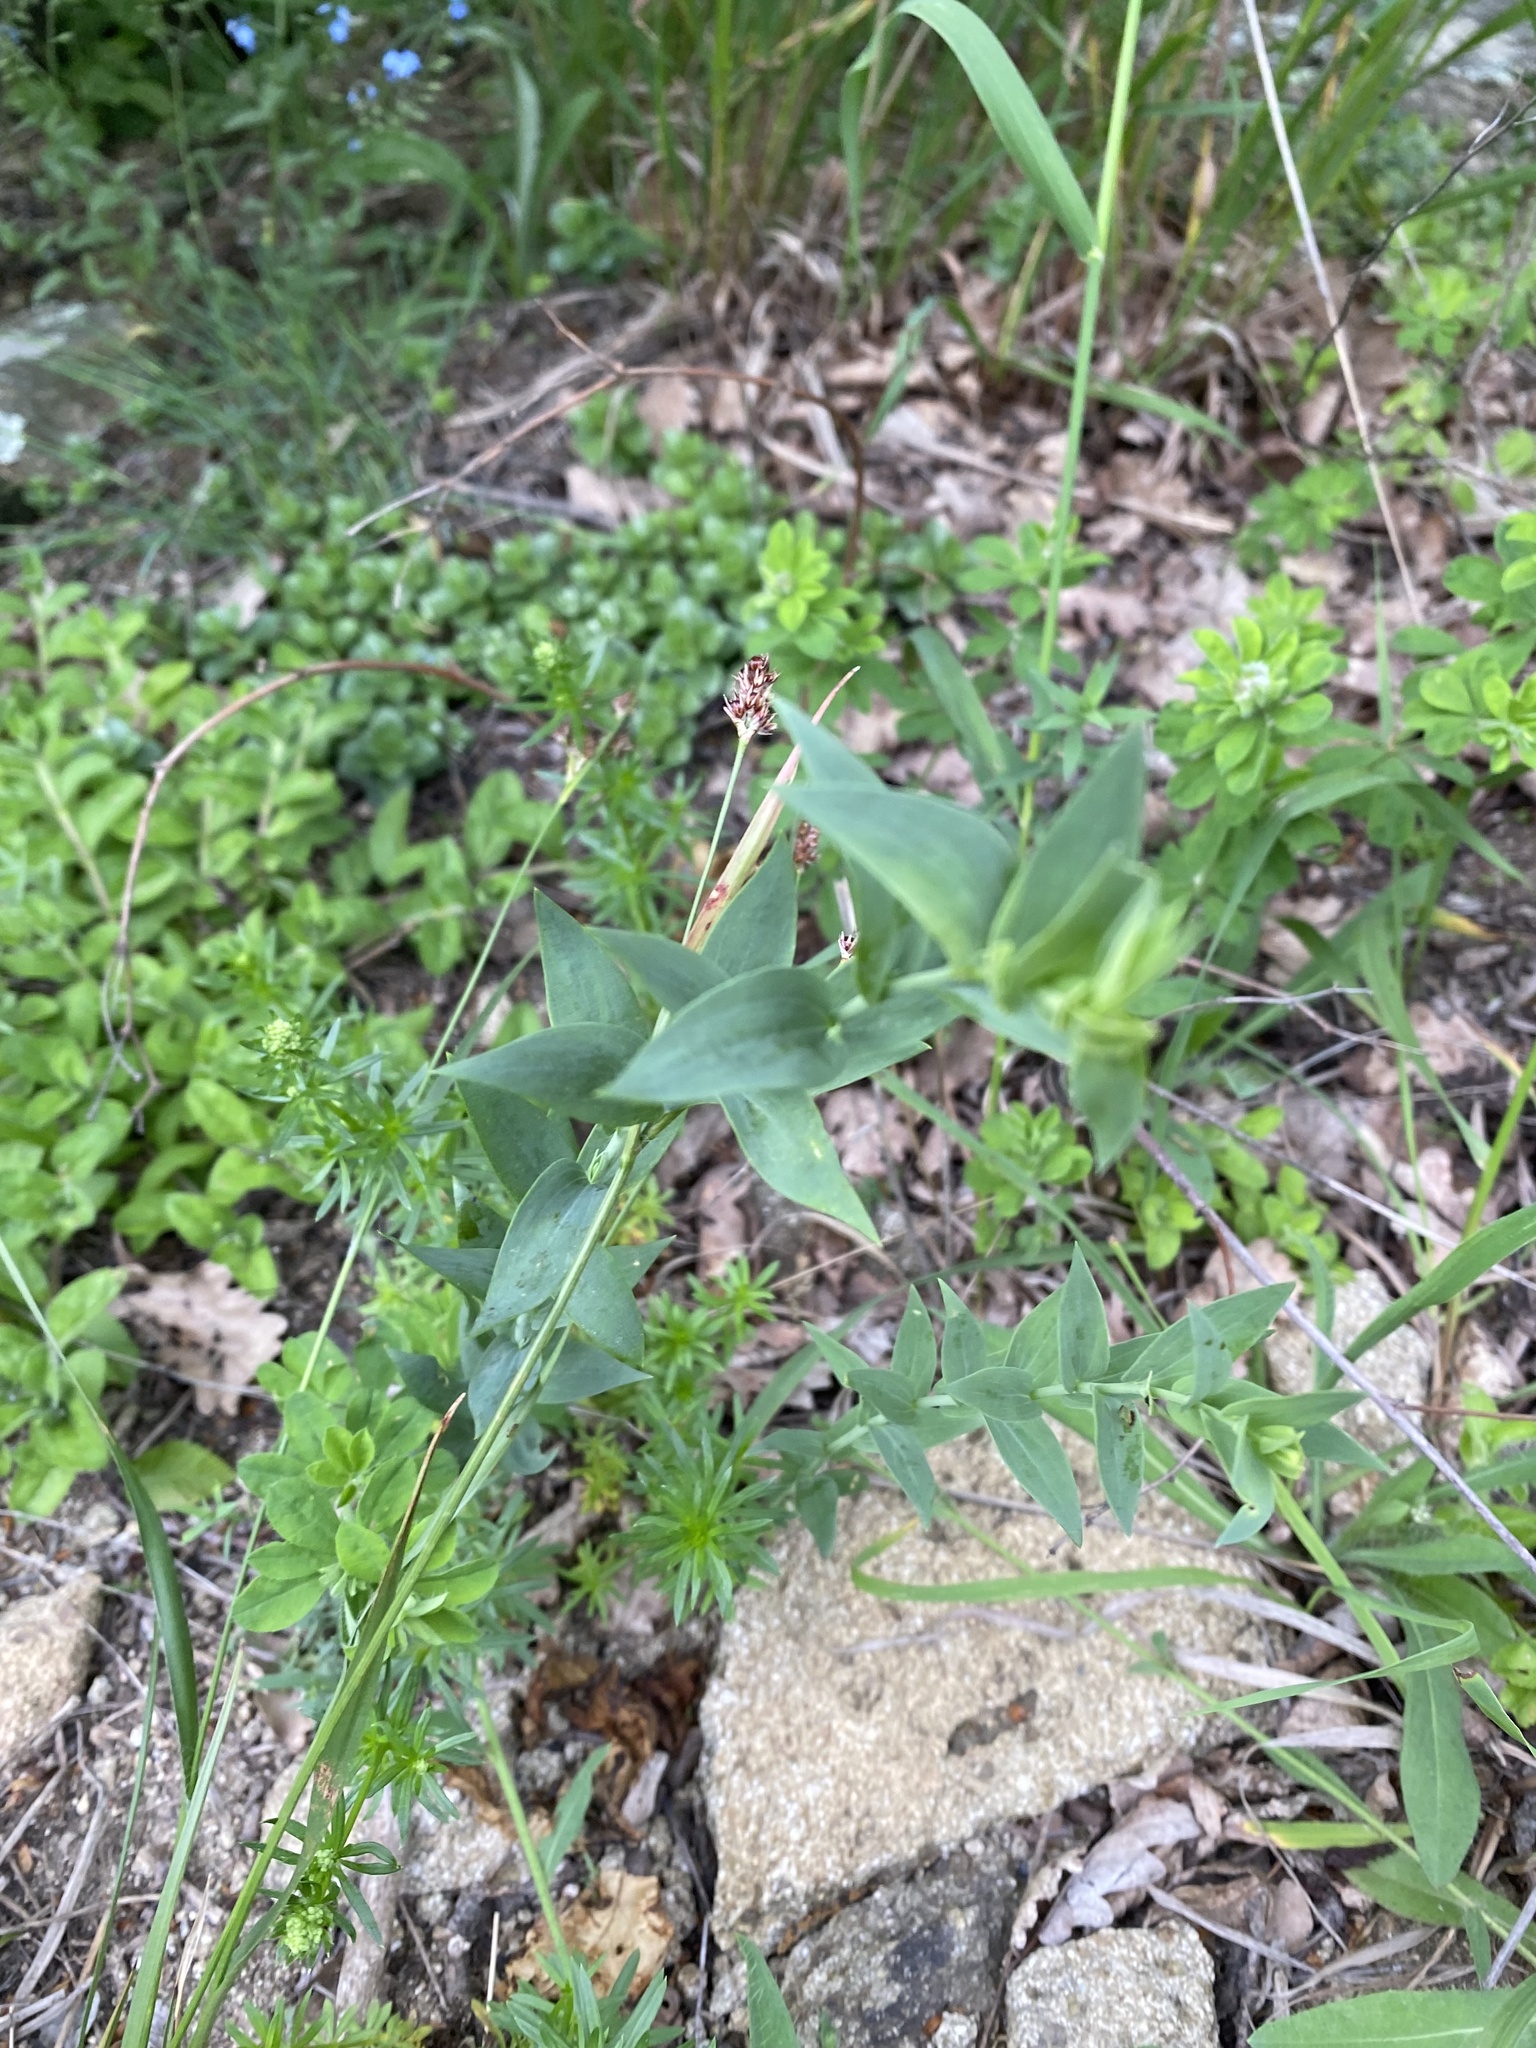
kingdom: Plantae
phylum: Tracheophyta
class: Magnoliopsida
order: Lamiales
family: Plantaginaceae
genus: Linaria
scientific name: Linaria genistifolia
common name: Broomleaf toadflax
